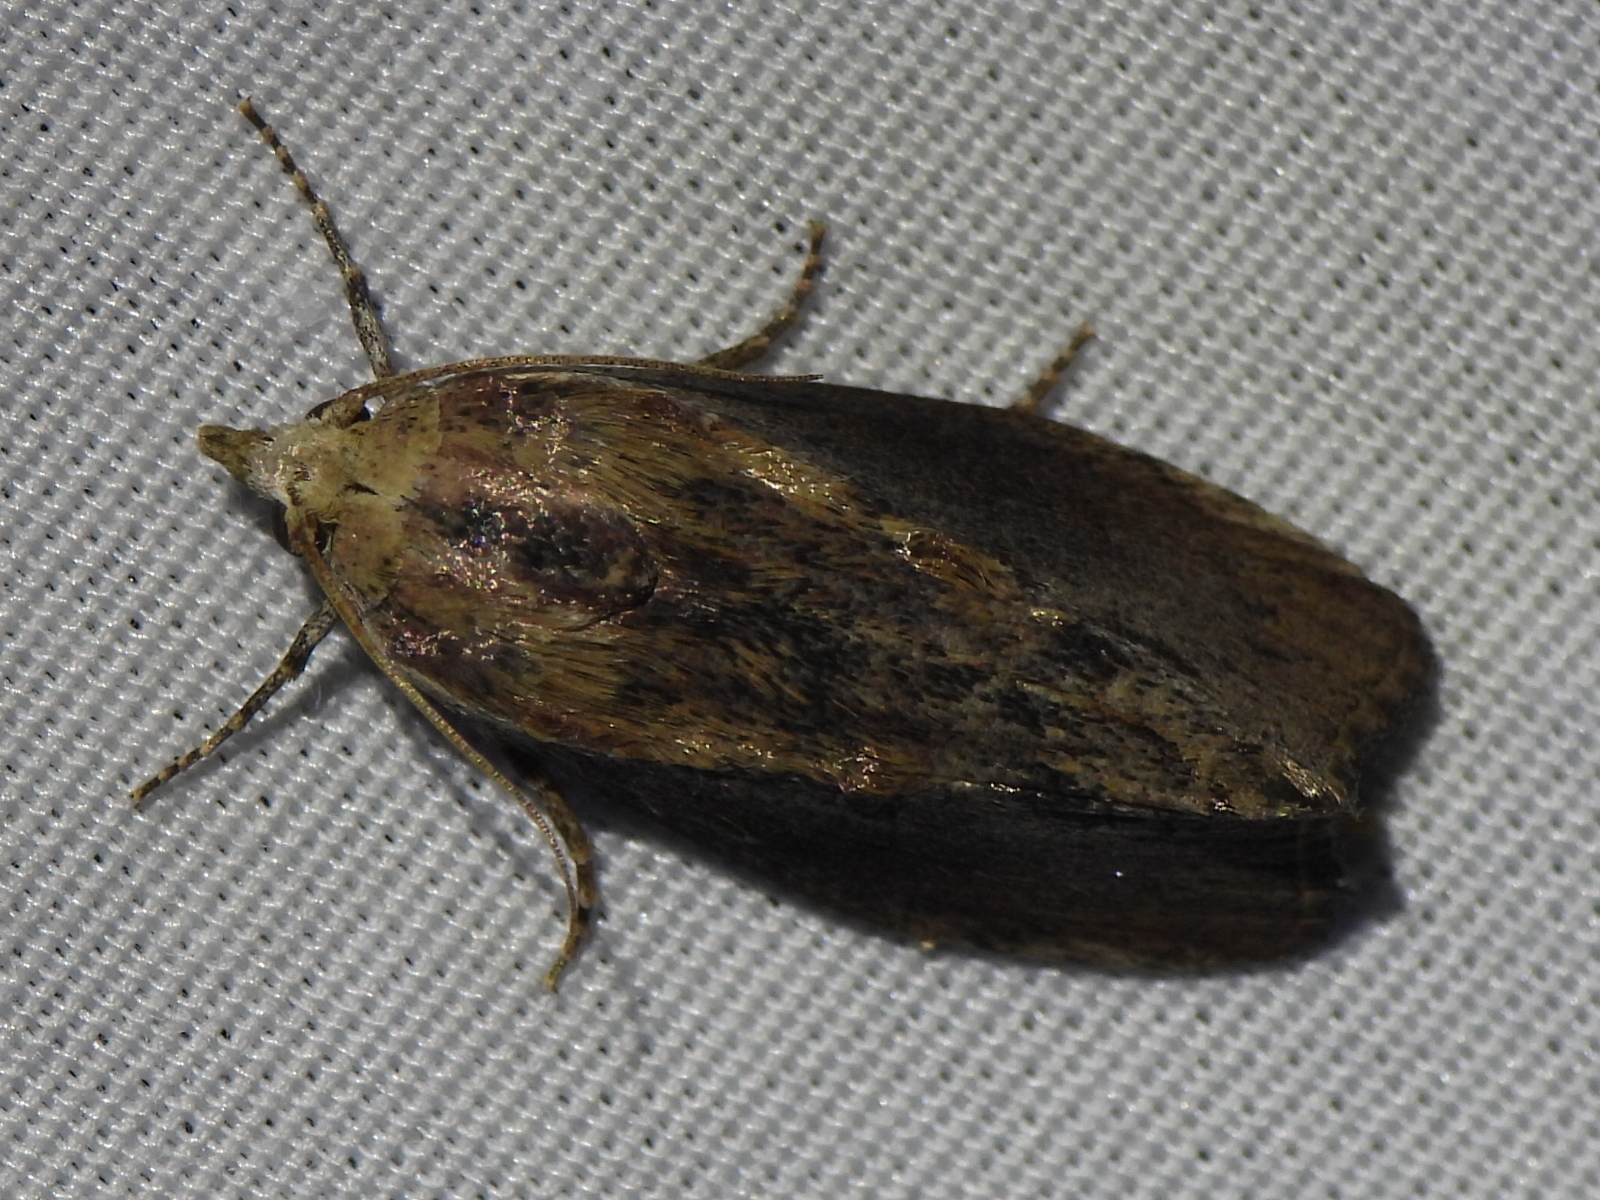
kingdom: Animalia
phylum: Arthropoda
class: Insecta
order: Lepidoptera
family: Pyralidae
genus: Galleria
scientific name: Galleria mellonella
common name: Greater wax moth
